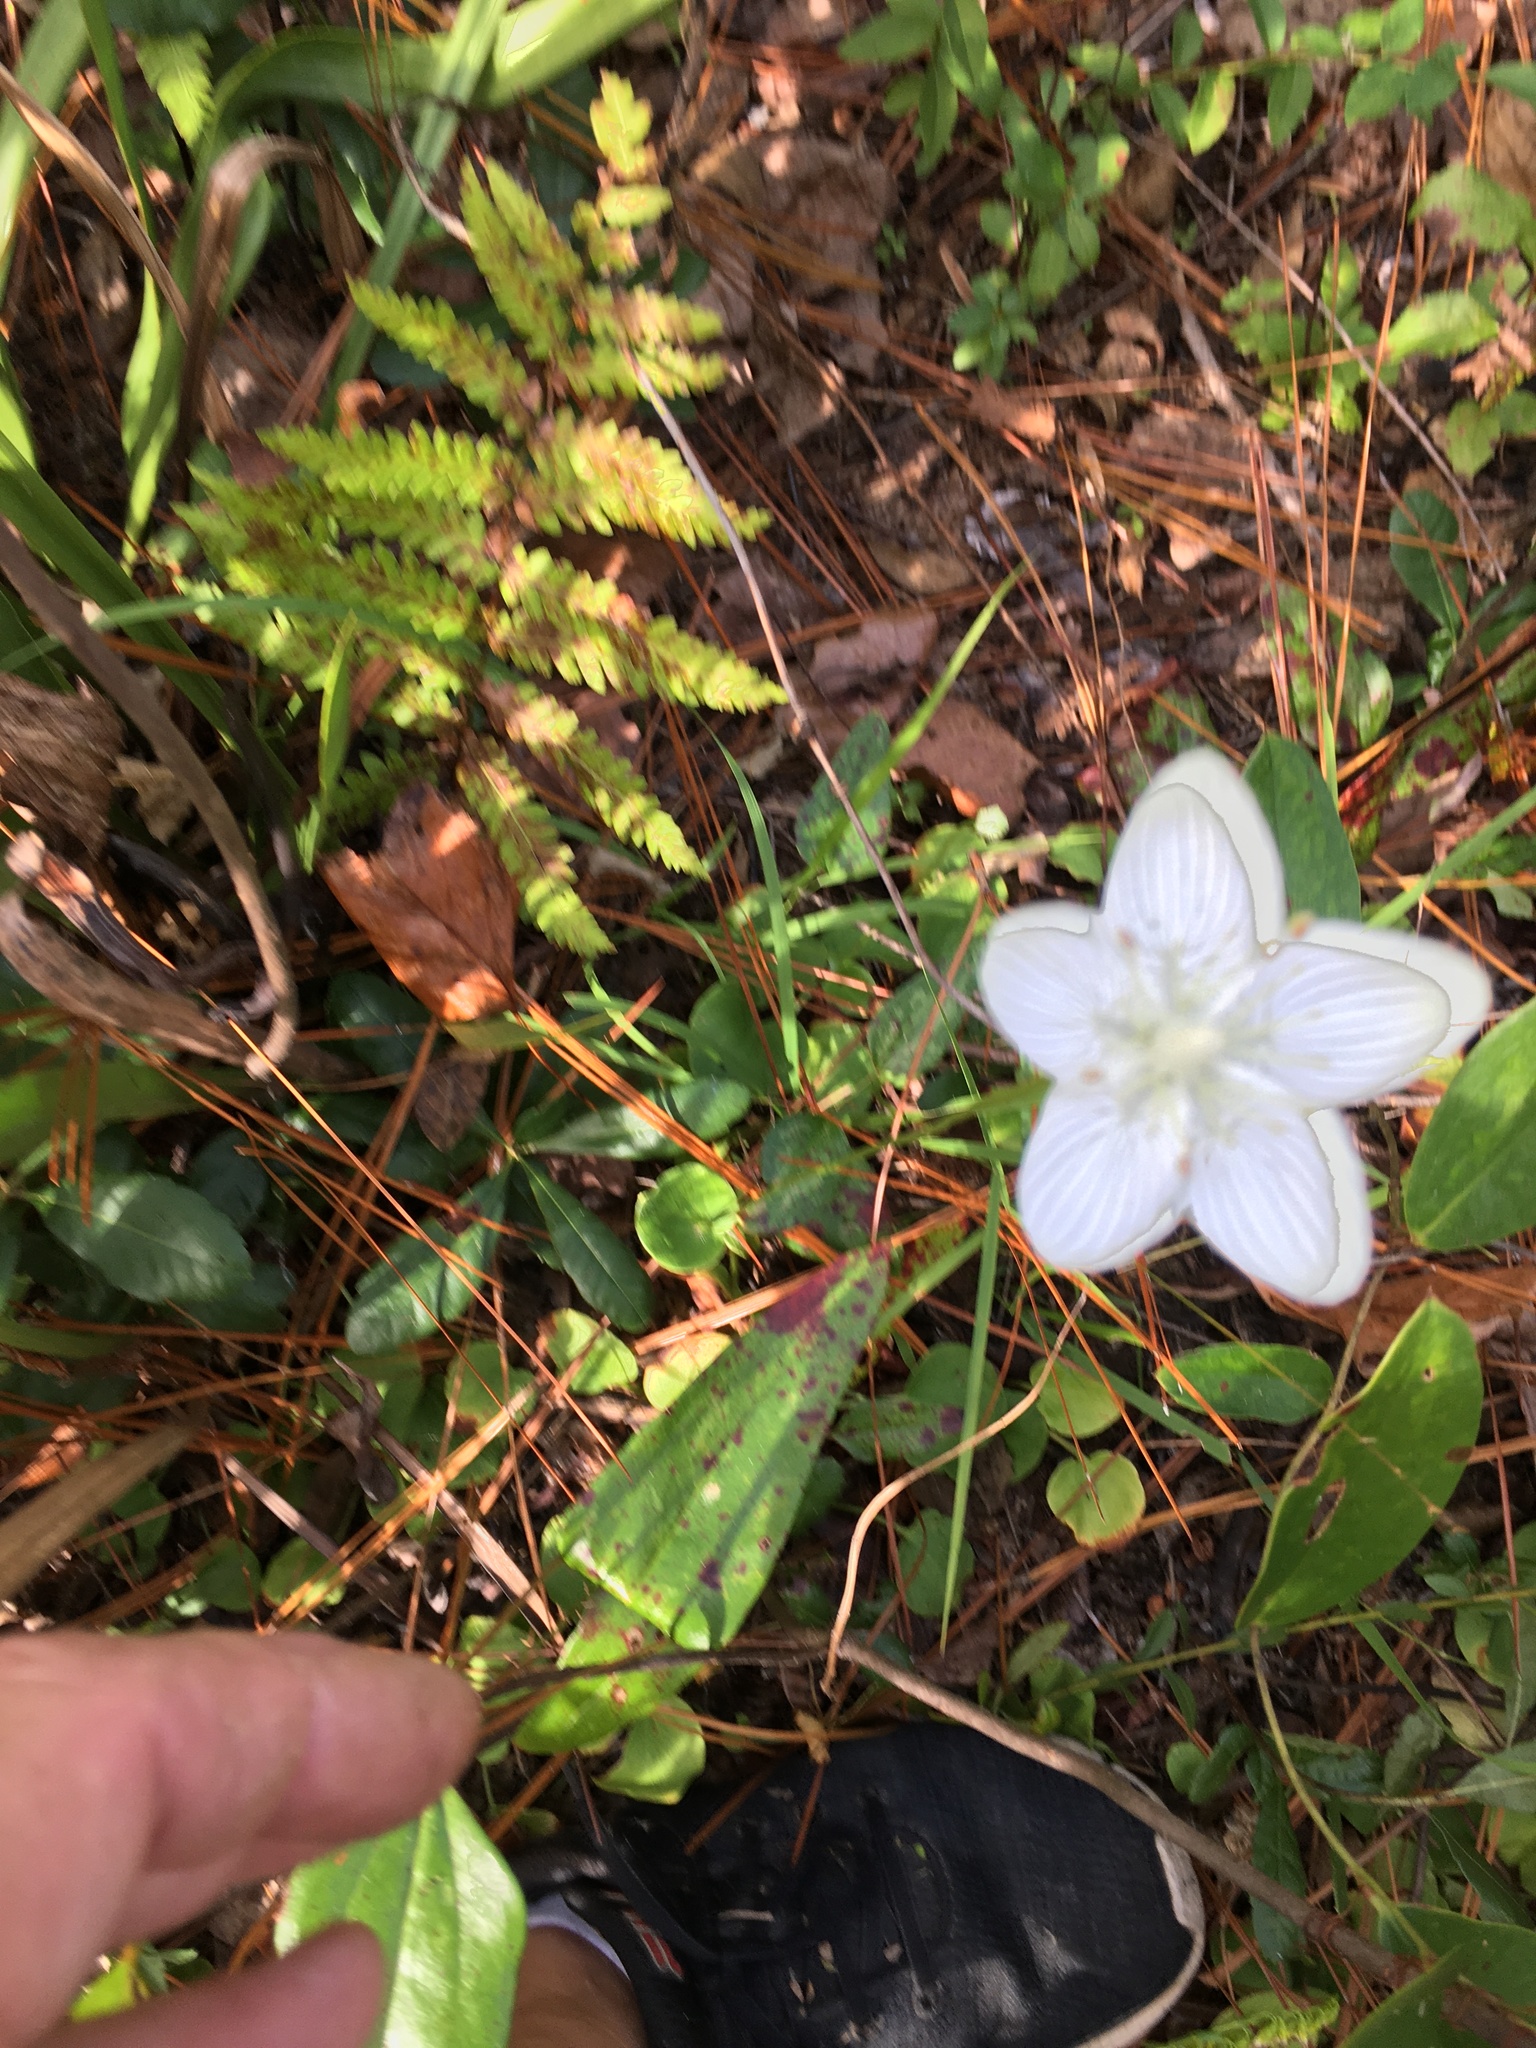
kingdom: Plantae
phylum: Tracheophyta
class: Magnoliopsida
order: Celastrales
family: Parnassiaceae
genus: Parnassia
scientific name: Parnassia caroliniana
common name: Carolina grass of parnassus
